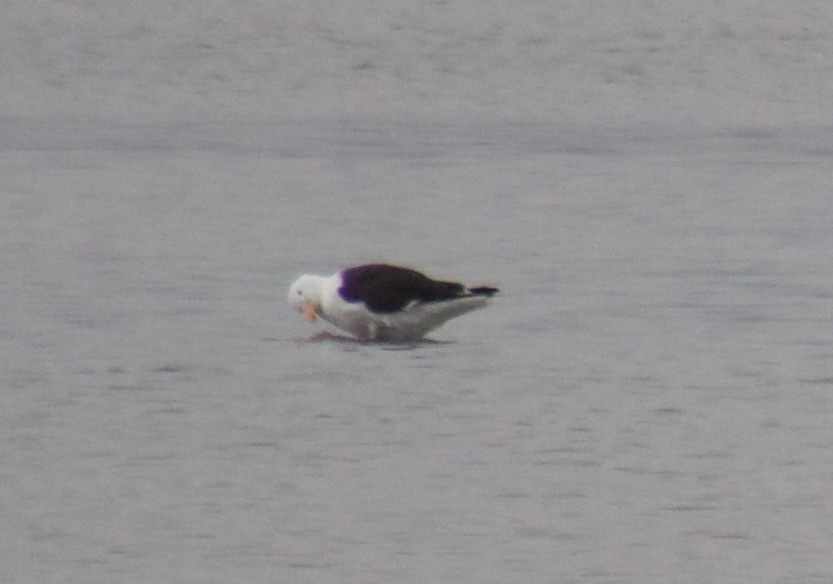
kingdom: Animalia
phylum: Chordata
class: Aves
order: Charadriiformes
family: Laridae
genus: Larus
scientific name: Larus marinus
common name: Great black-backed gull
